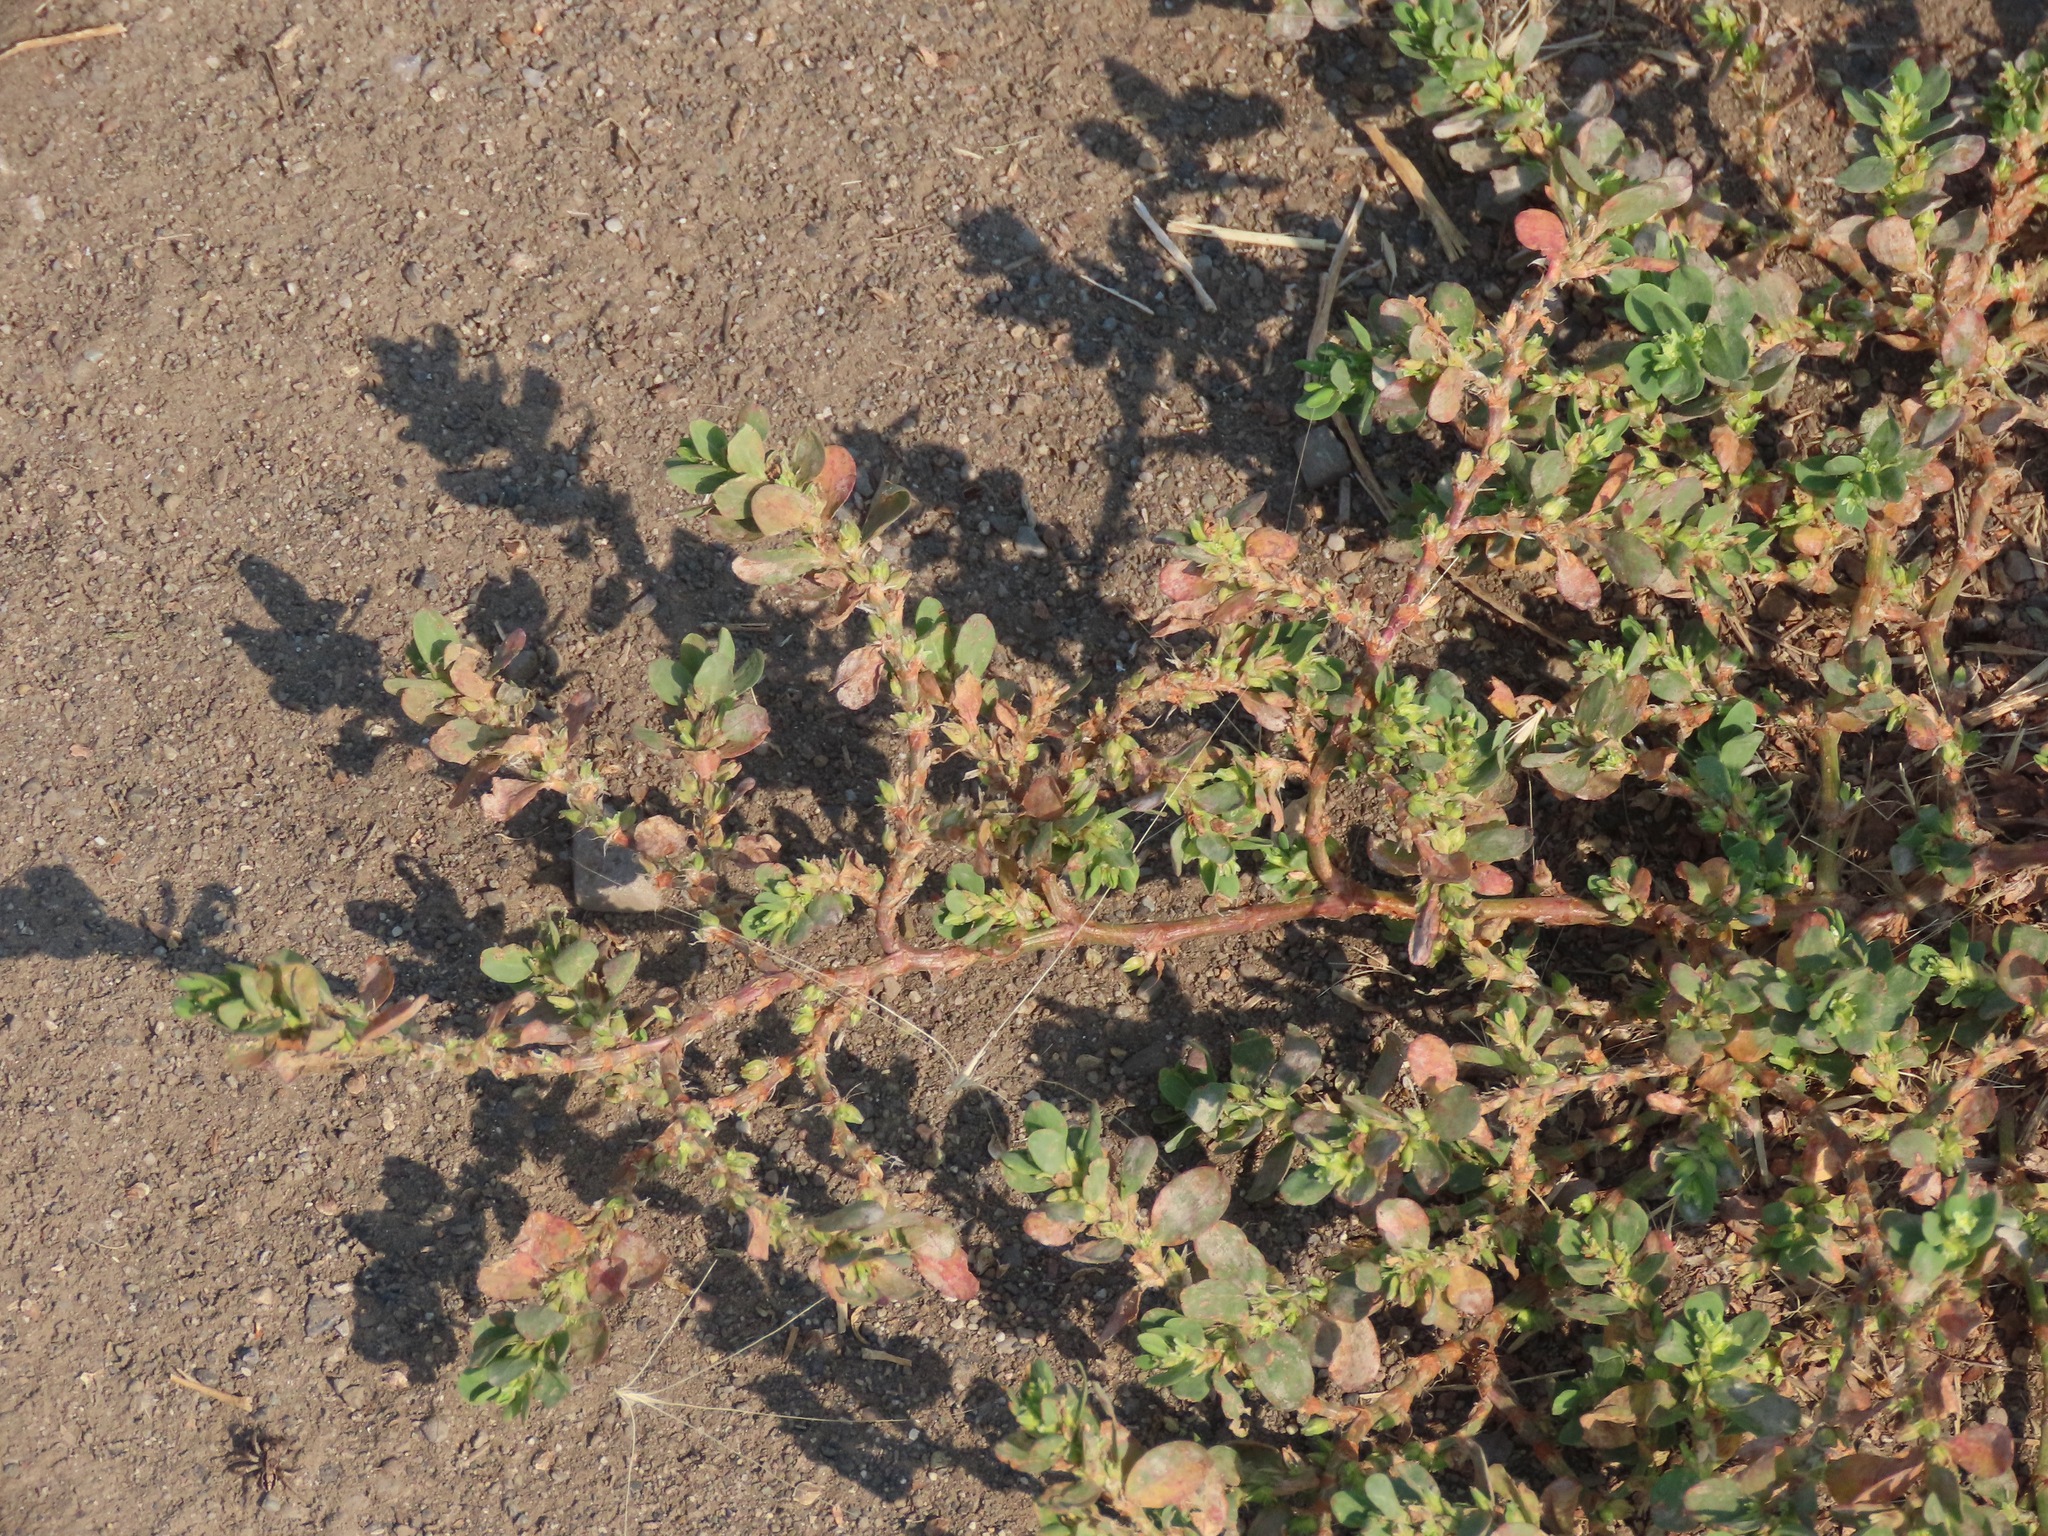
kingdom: Plantae
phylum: Tracheophyta
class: Magnoliopsida
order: Caryophyllales
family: Polygonaceae
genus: Polygonum
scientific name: Polygonum aviculare
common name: Prostrate knotweed
